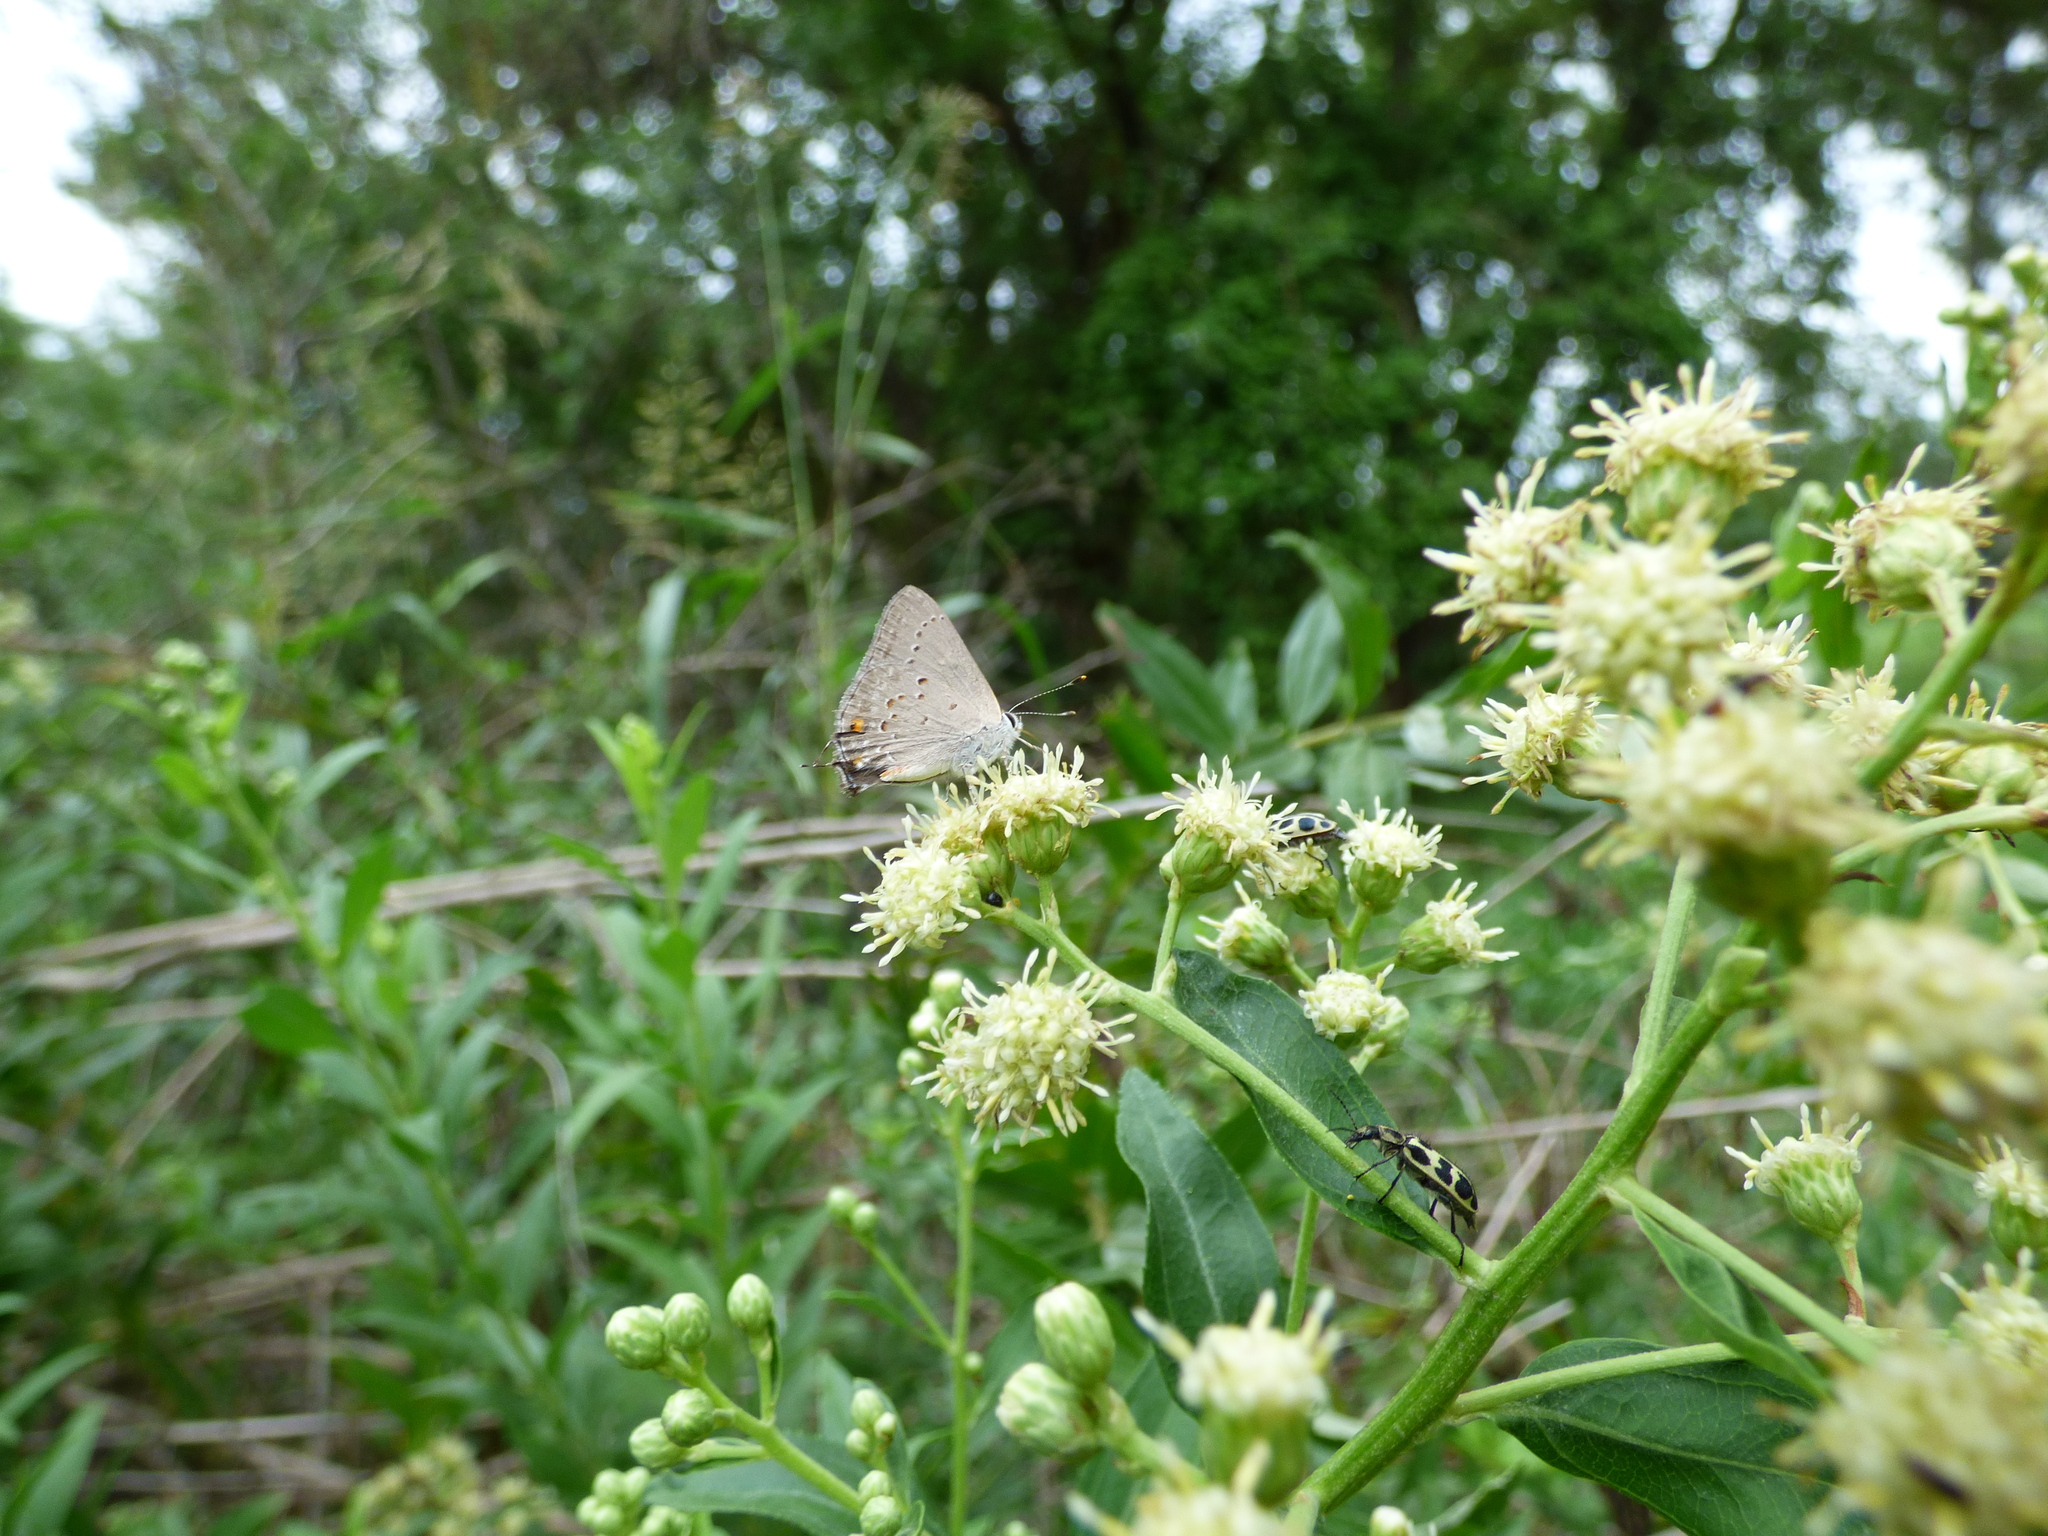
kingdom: Animalia
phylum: Arthropoda
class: Insecta
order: Lepidoptera
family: Lycaenidae
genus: Strymon
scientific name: Strymon eurytulus
